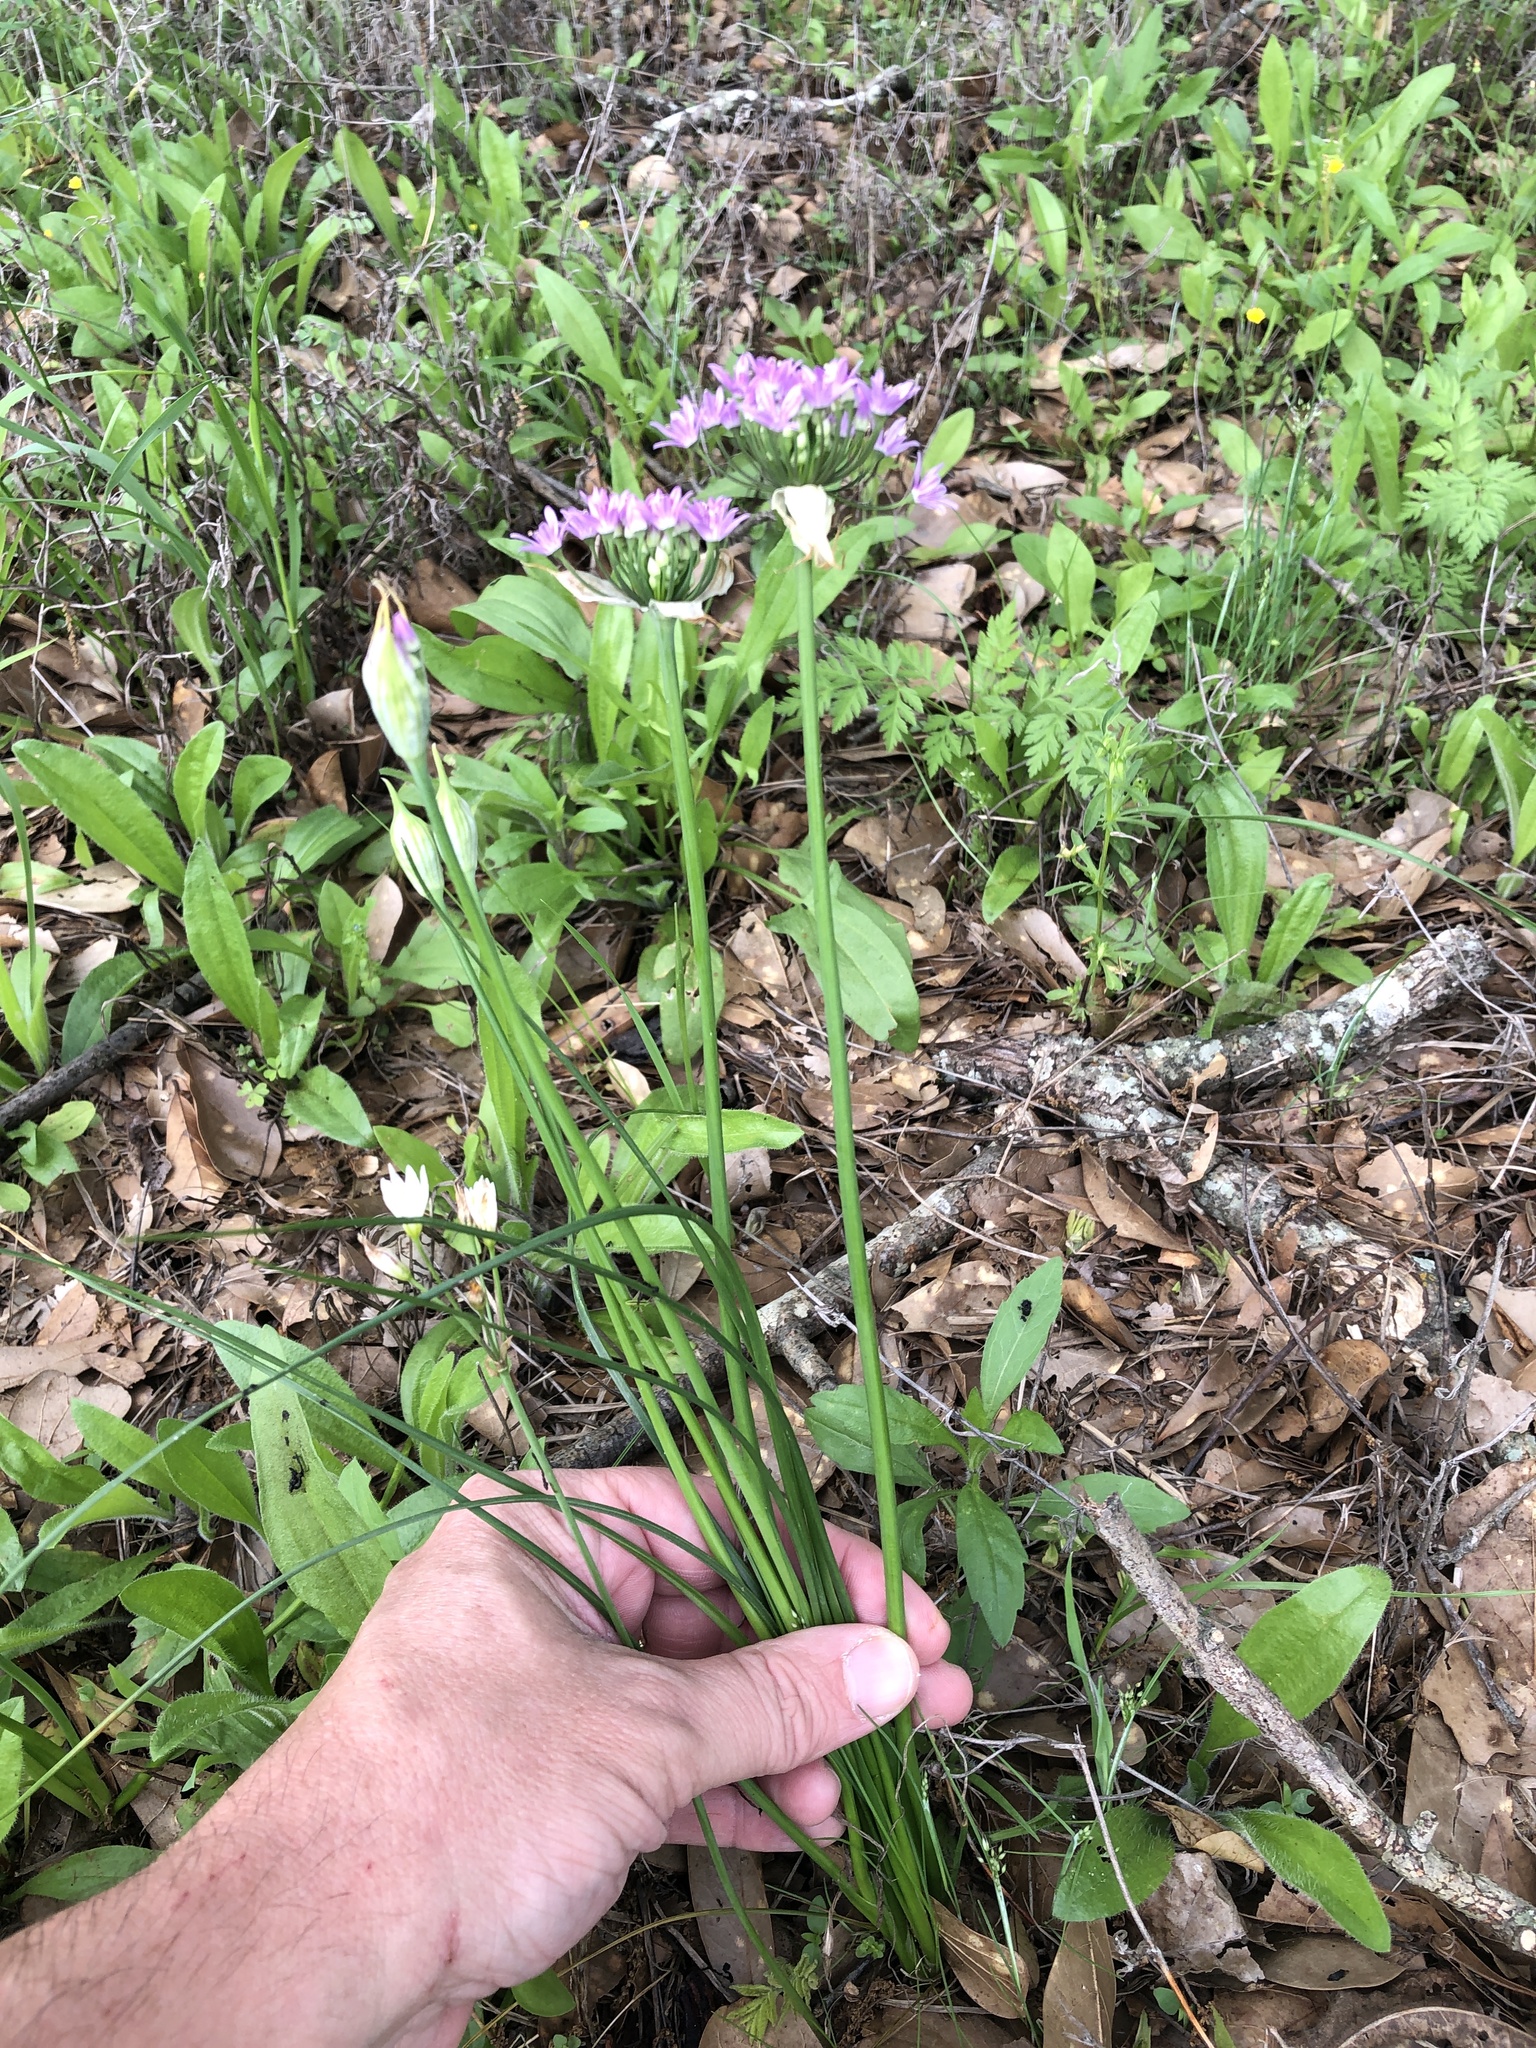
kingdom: Plantae
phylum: Tracheophyta
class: Liliopsida
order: Asparagales
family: Amaryllidaceae
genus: Allium
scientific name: Allium drummondii
